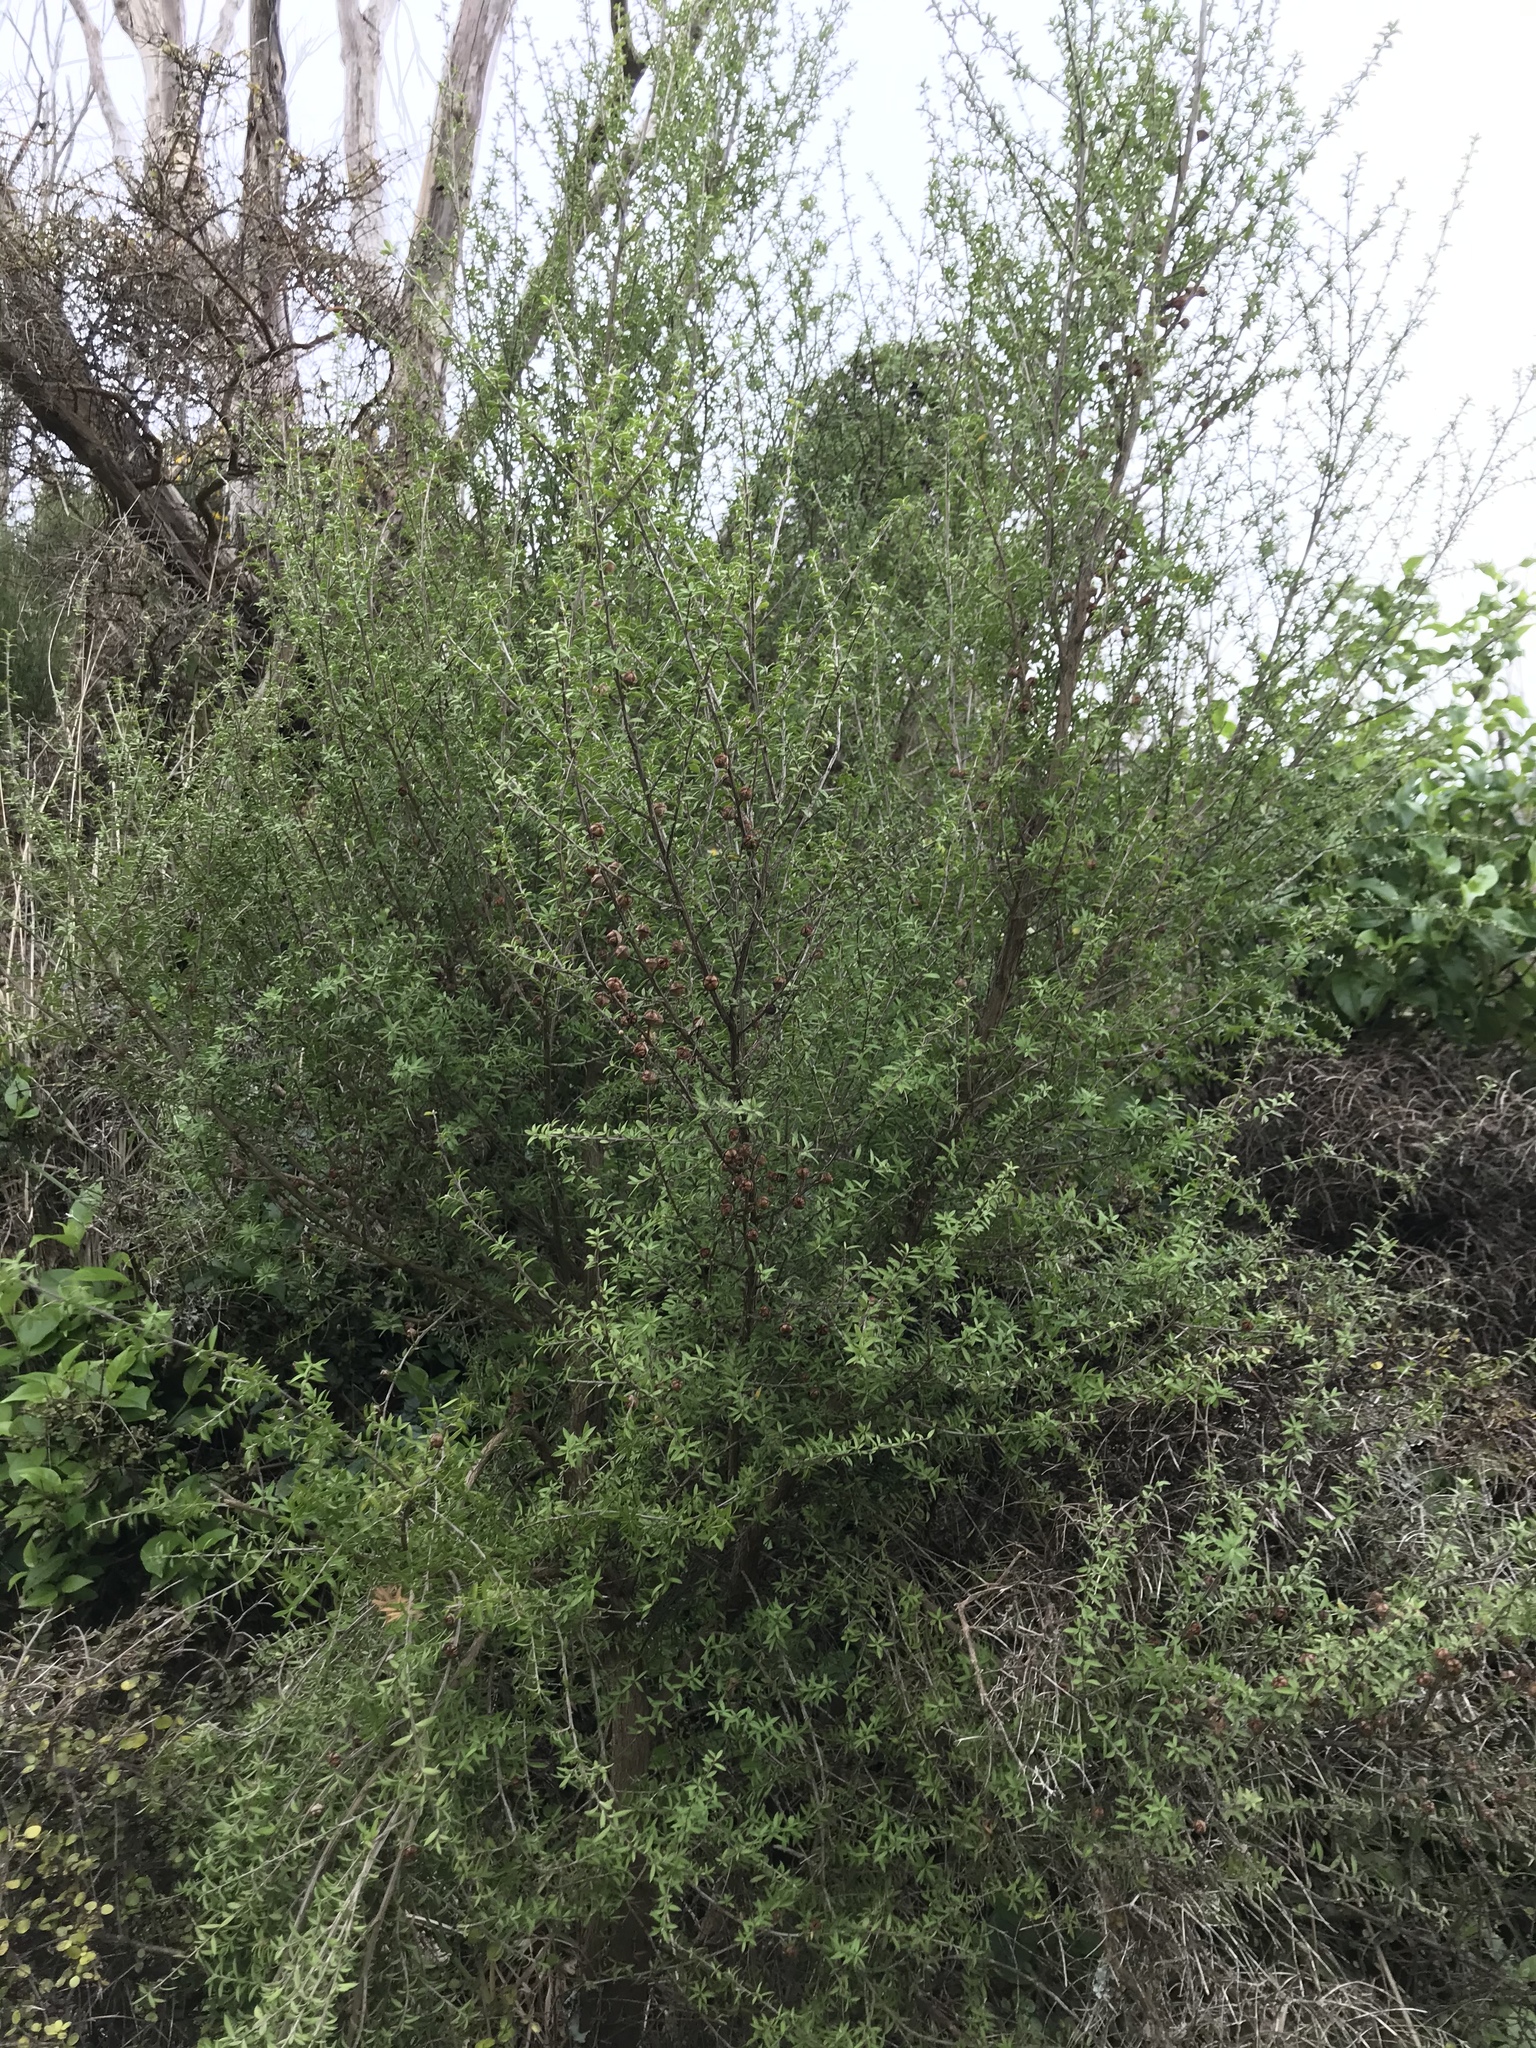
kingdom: Plantae
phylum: Tracheophyta
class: Magnoliopsida
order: Myrtales
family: Myrtaceae
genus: Leptospermum
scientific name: Leptospermum scoparium
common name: Broom tea-tree
